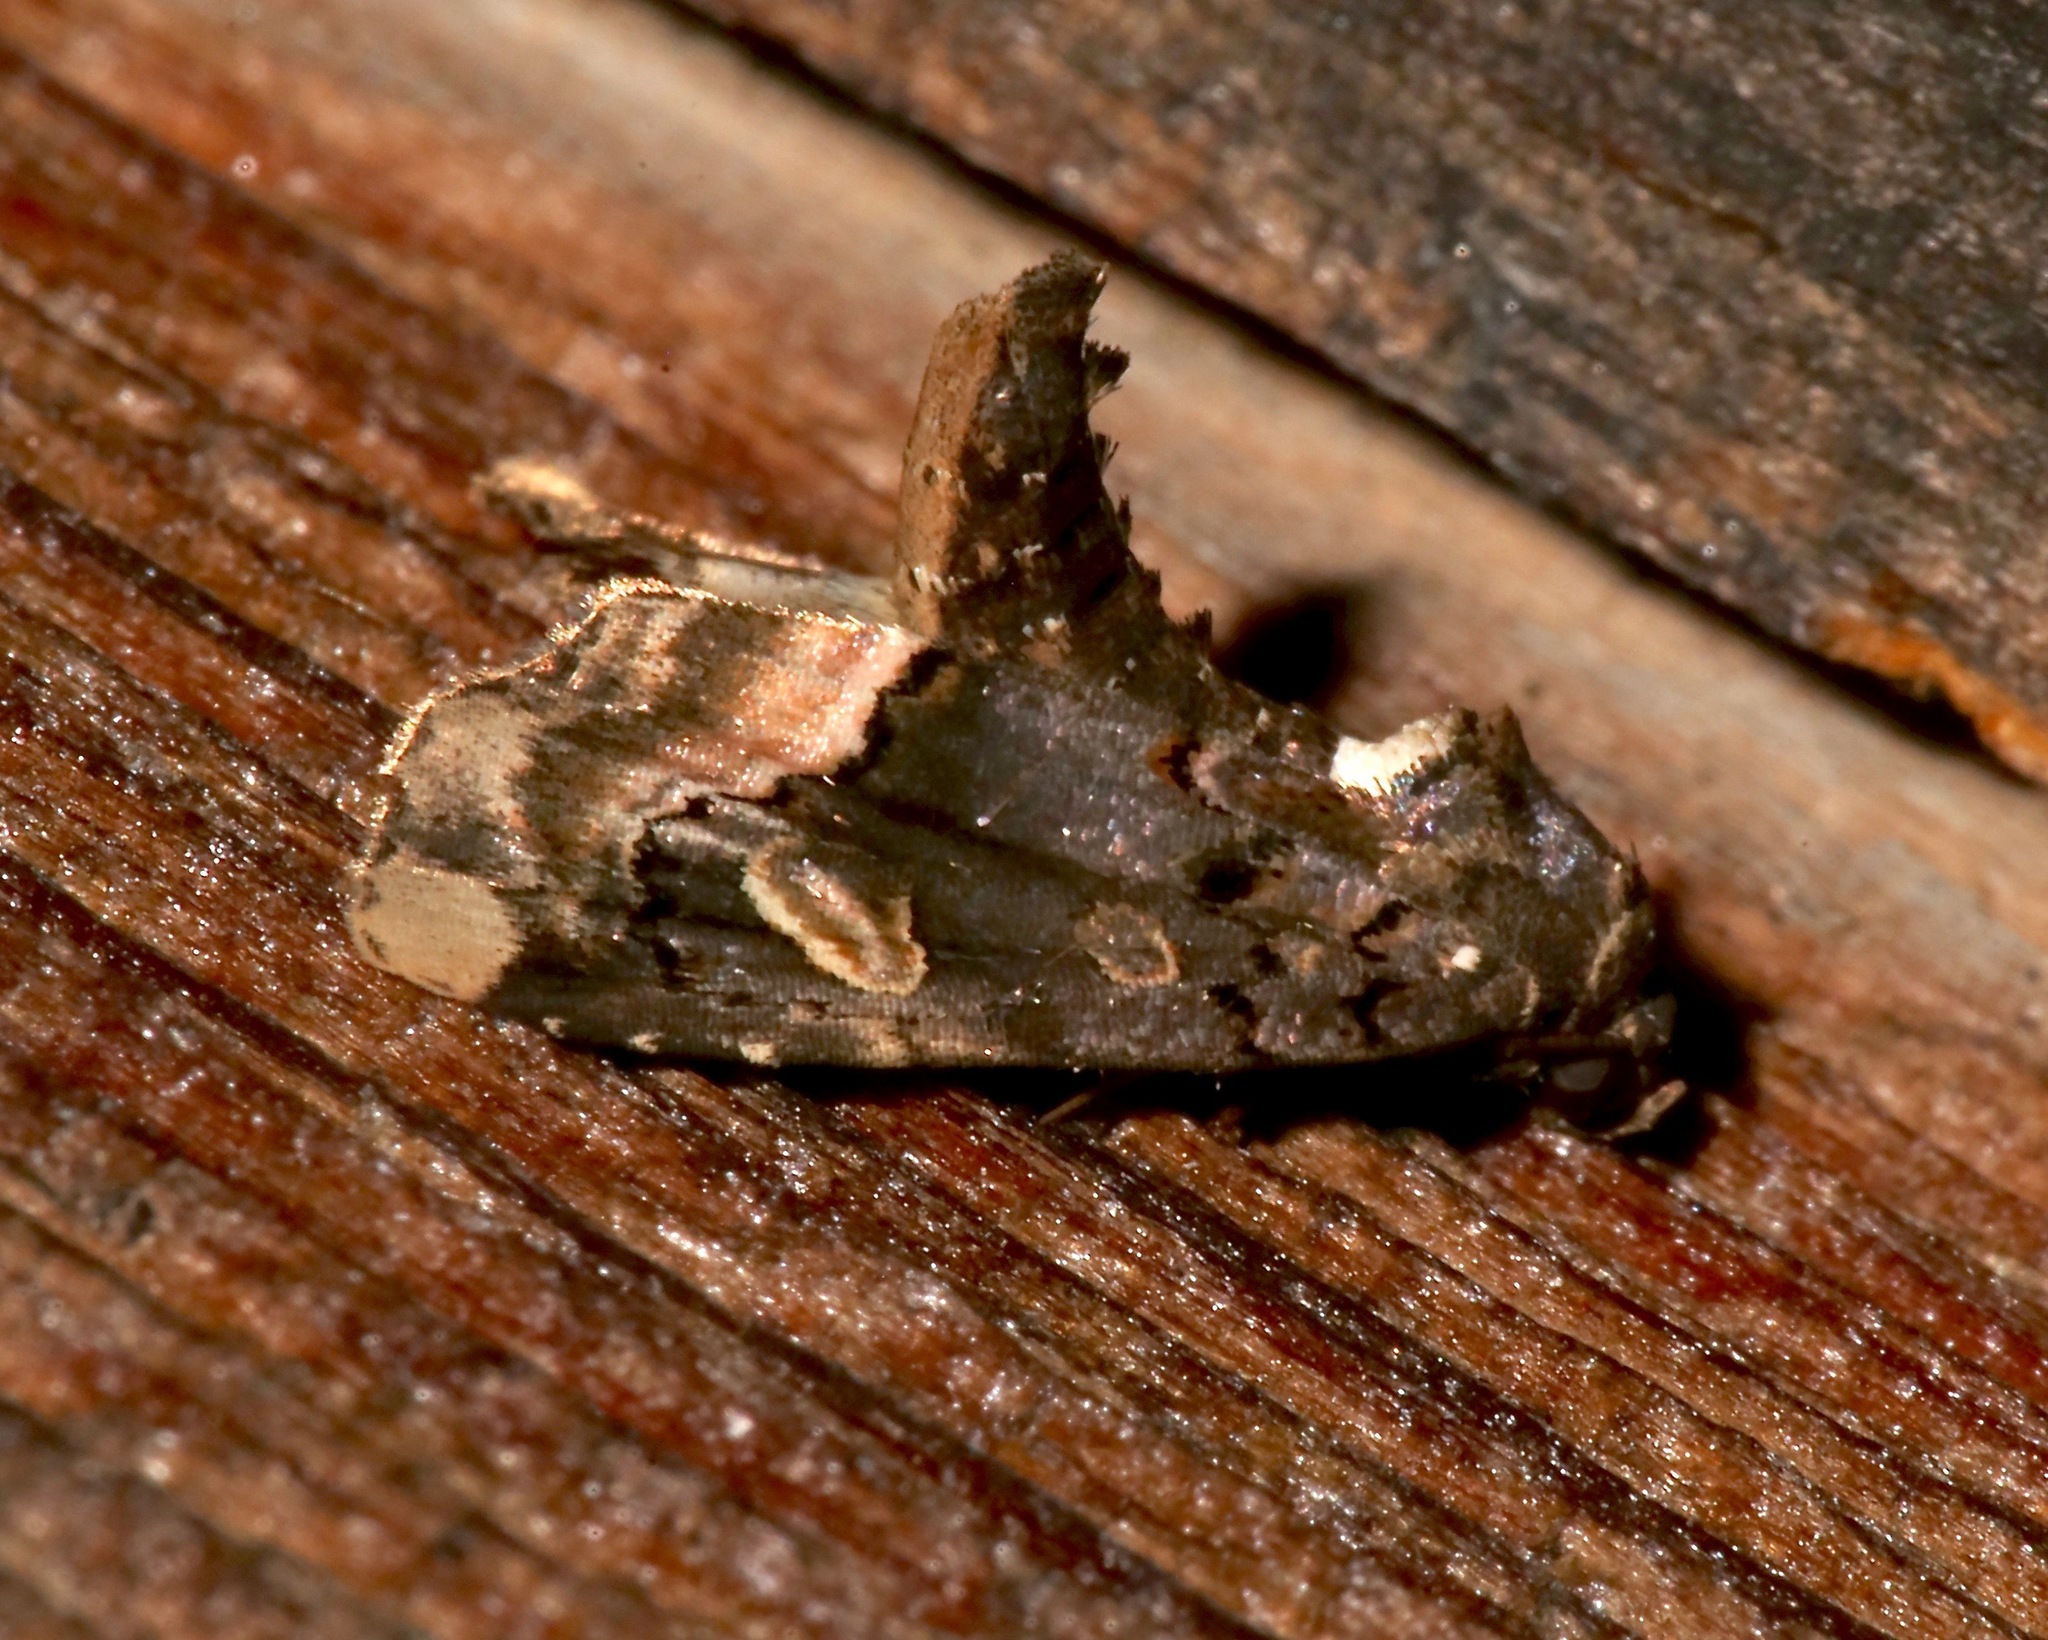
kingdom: Animalia
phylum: Arthropoda
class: Insecta
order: Lepidoptera
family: Noctuidae
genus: Homophoberia
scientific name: Homophoberia apicosa
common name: Black wedge-spot
